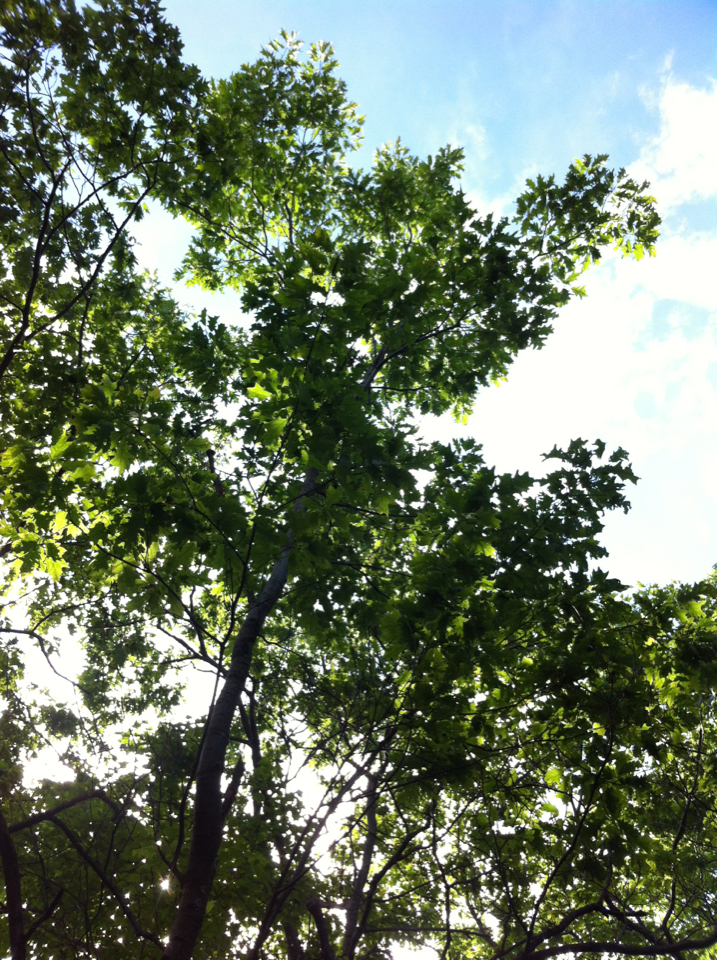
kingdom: Plantae
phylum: Tracheophyta
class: Magnoliopsida
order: Fagales
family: Fagaceae
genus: Quercus
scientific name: Quercus rubra
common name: Red oak
